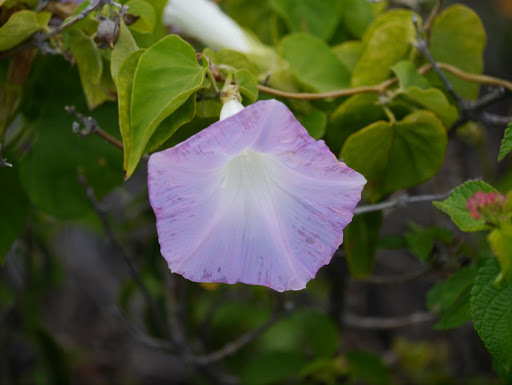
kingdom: Plantae
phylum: Tracheophyta
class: Magnoliopsida
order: Solanales
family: Convolvulaceae
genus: Ipomoea
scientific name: Ipomoea indica
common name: Blue dawnflower
